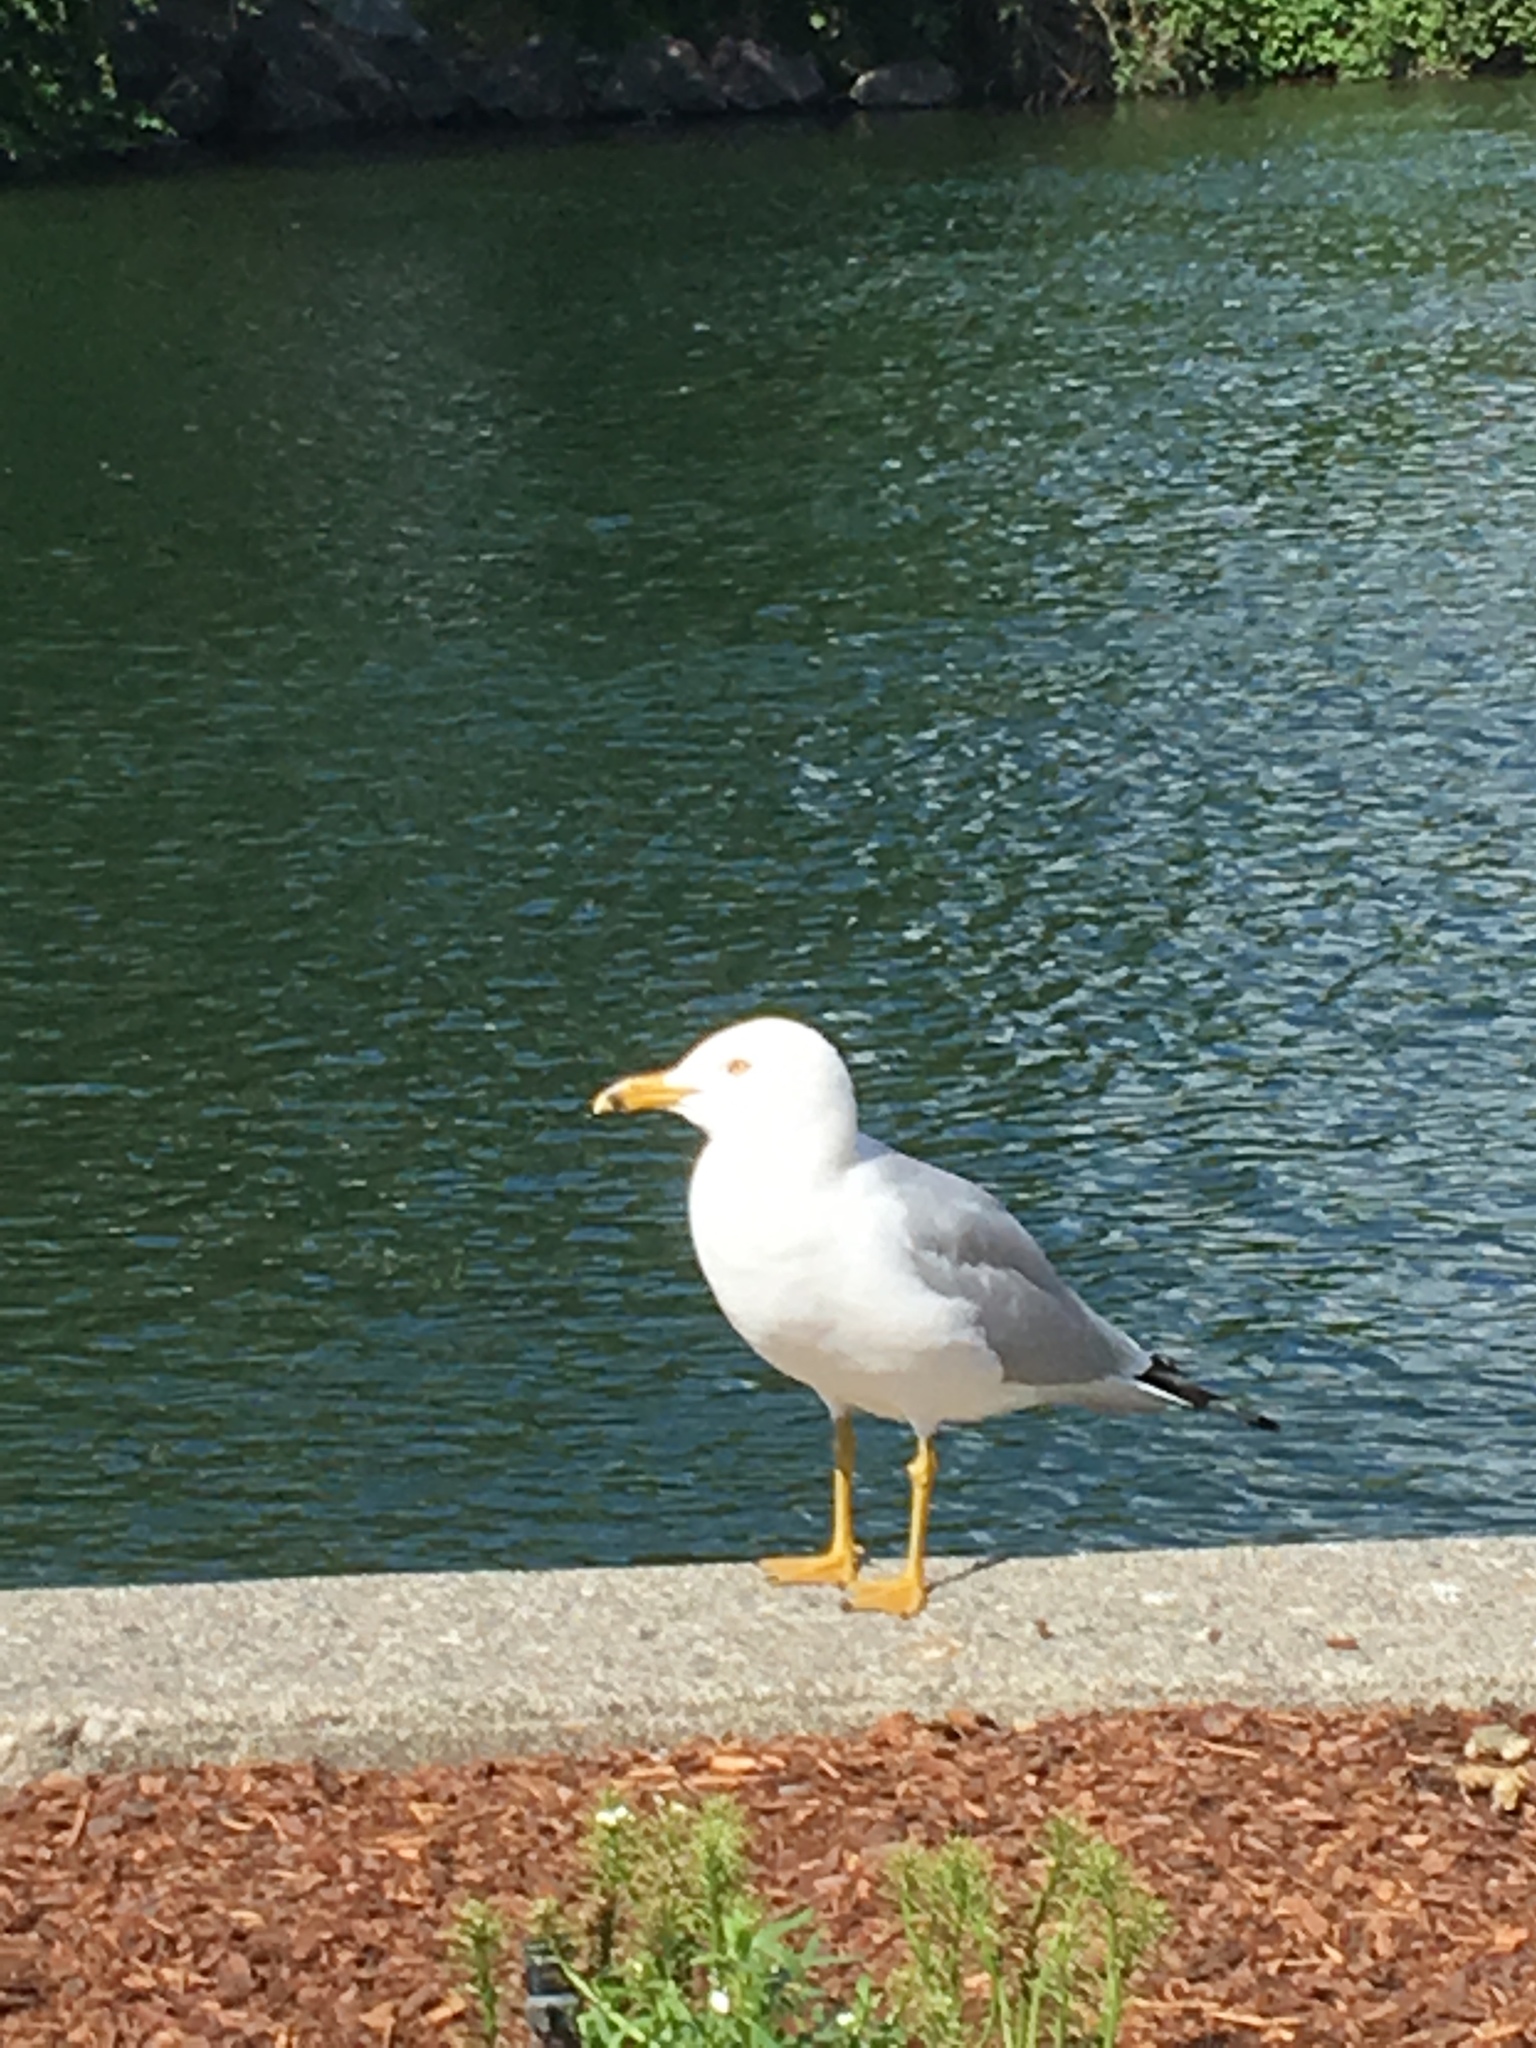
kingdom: Animalia
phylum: Chordata
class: Aves
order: Charadriiformes
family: Laridae
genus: Larus
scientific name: Larus delawarensis
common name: Ring-billed gull
